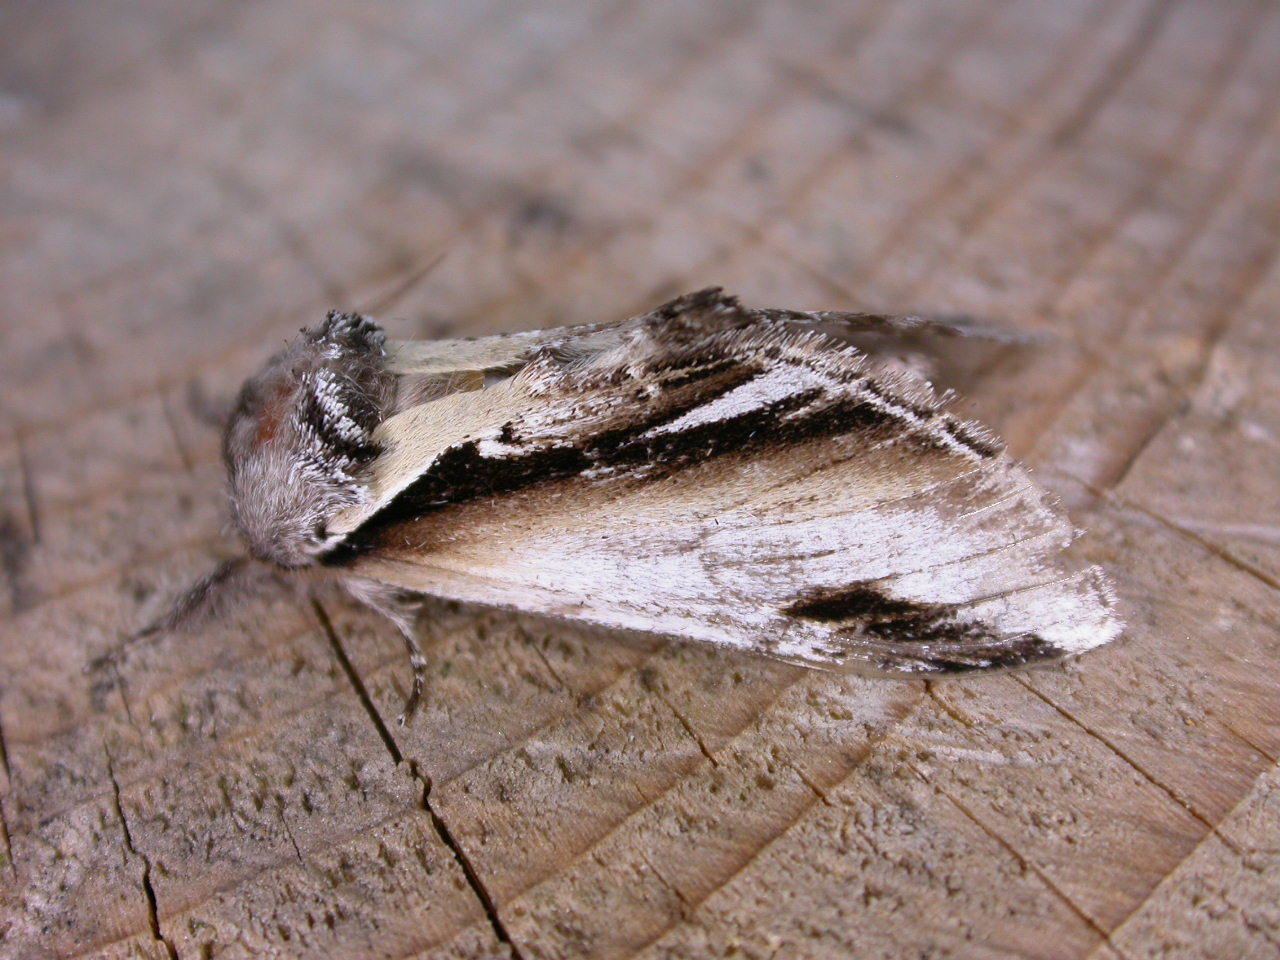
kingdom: Animalia
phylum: Arthropoda
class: Insecta
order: Lepidoptera
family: Notodontidae
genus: Pheosia
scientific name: Pheosia gnoma
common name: Lesser swallow prominent
